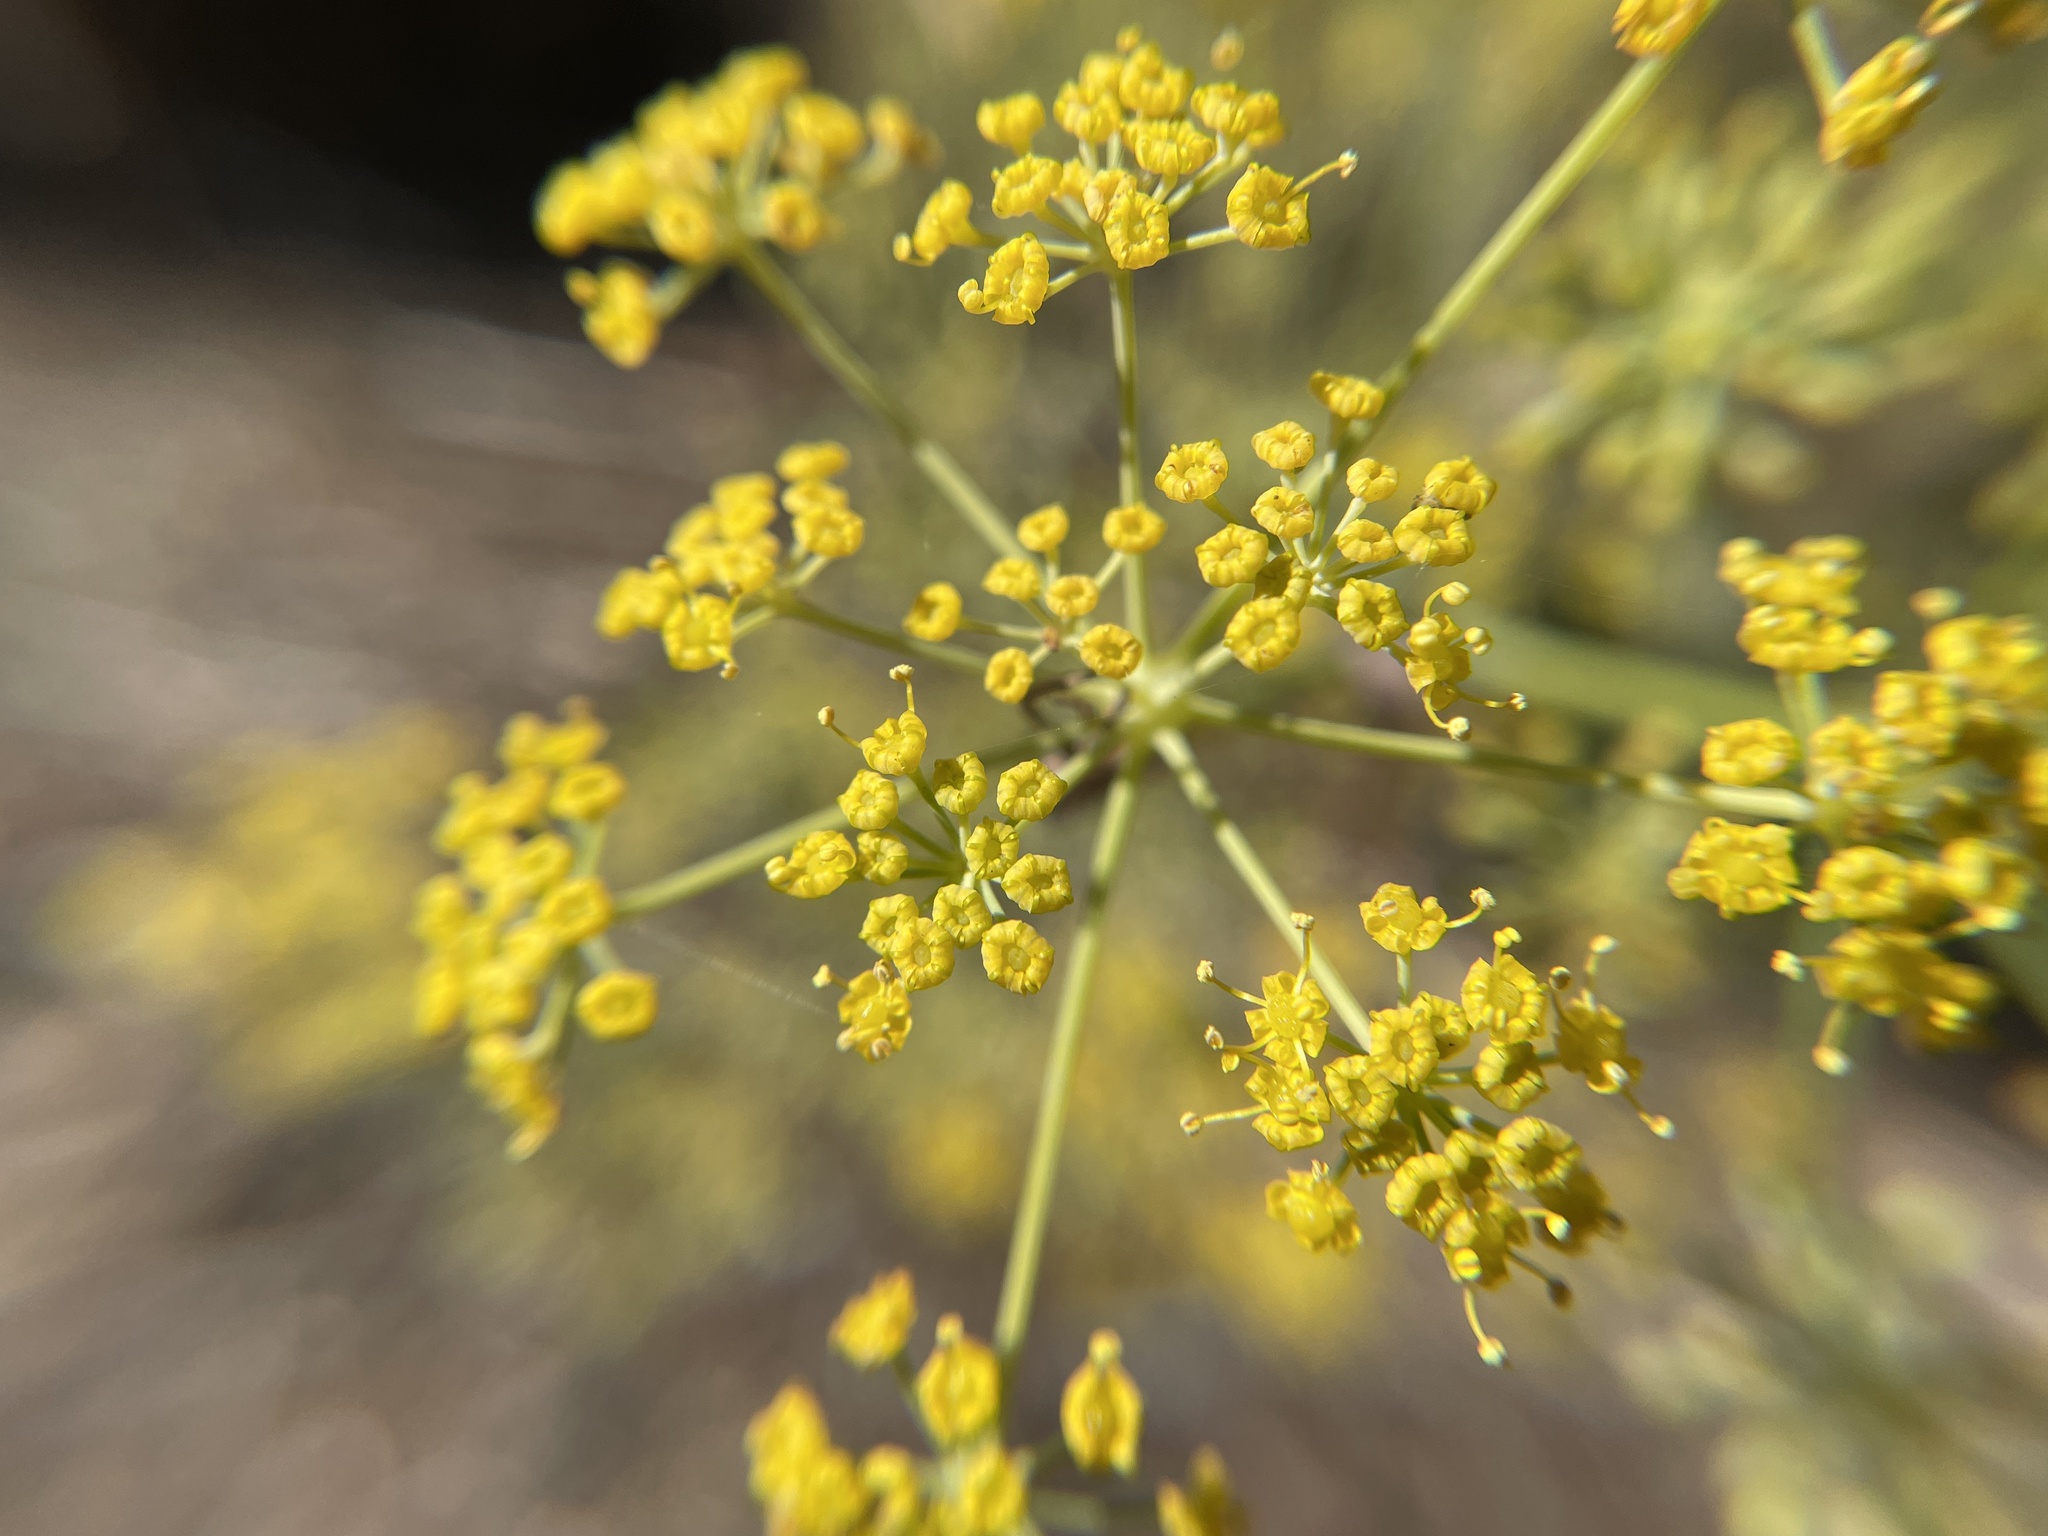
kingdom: Plantae
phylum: Tracheophyta
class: Magnoliopsida
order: Apiales
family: Apiaceae
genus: Foeniculum
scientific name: Foeniculum vulgare
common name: Fennel
